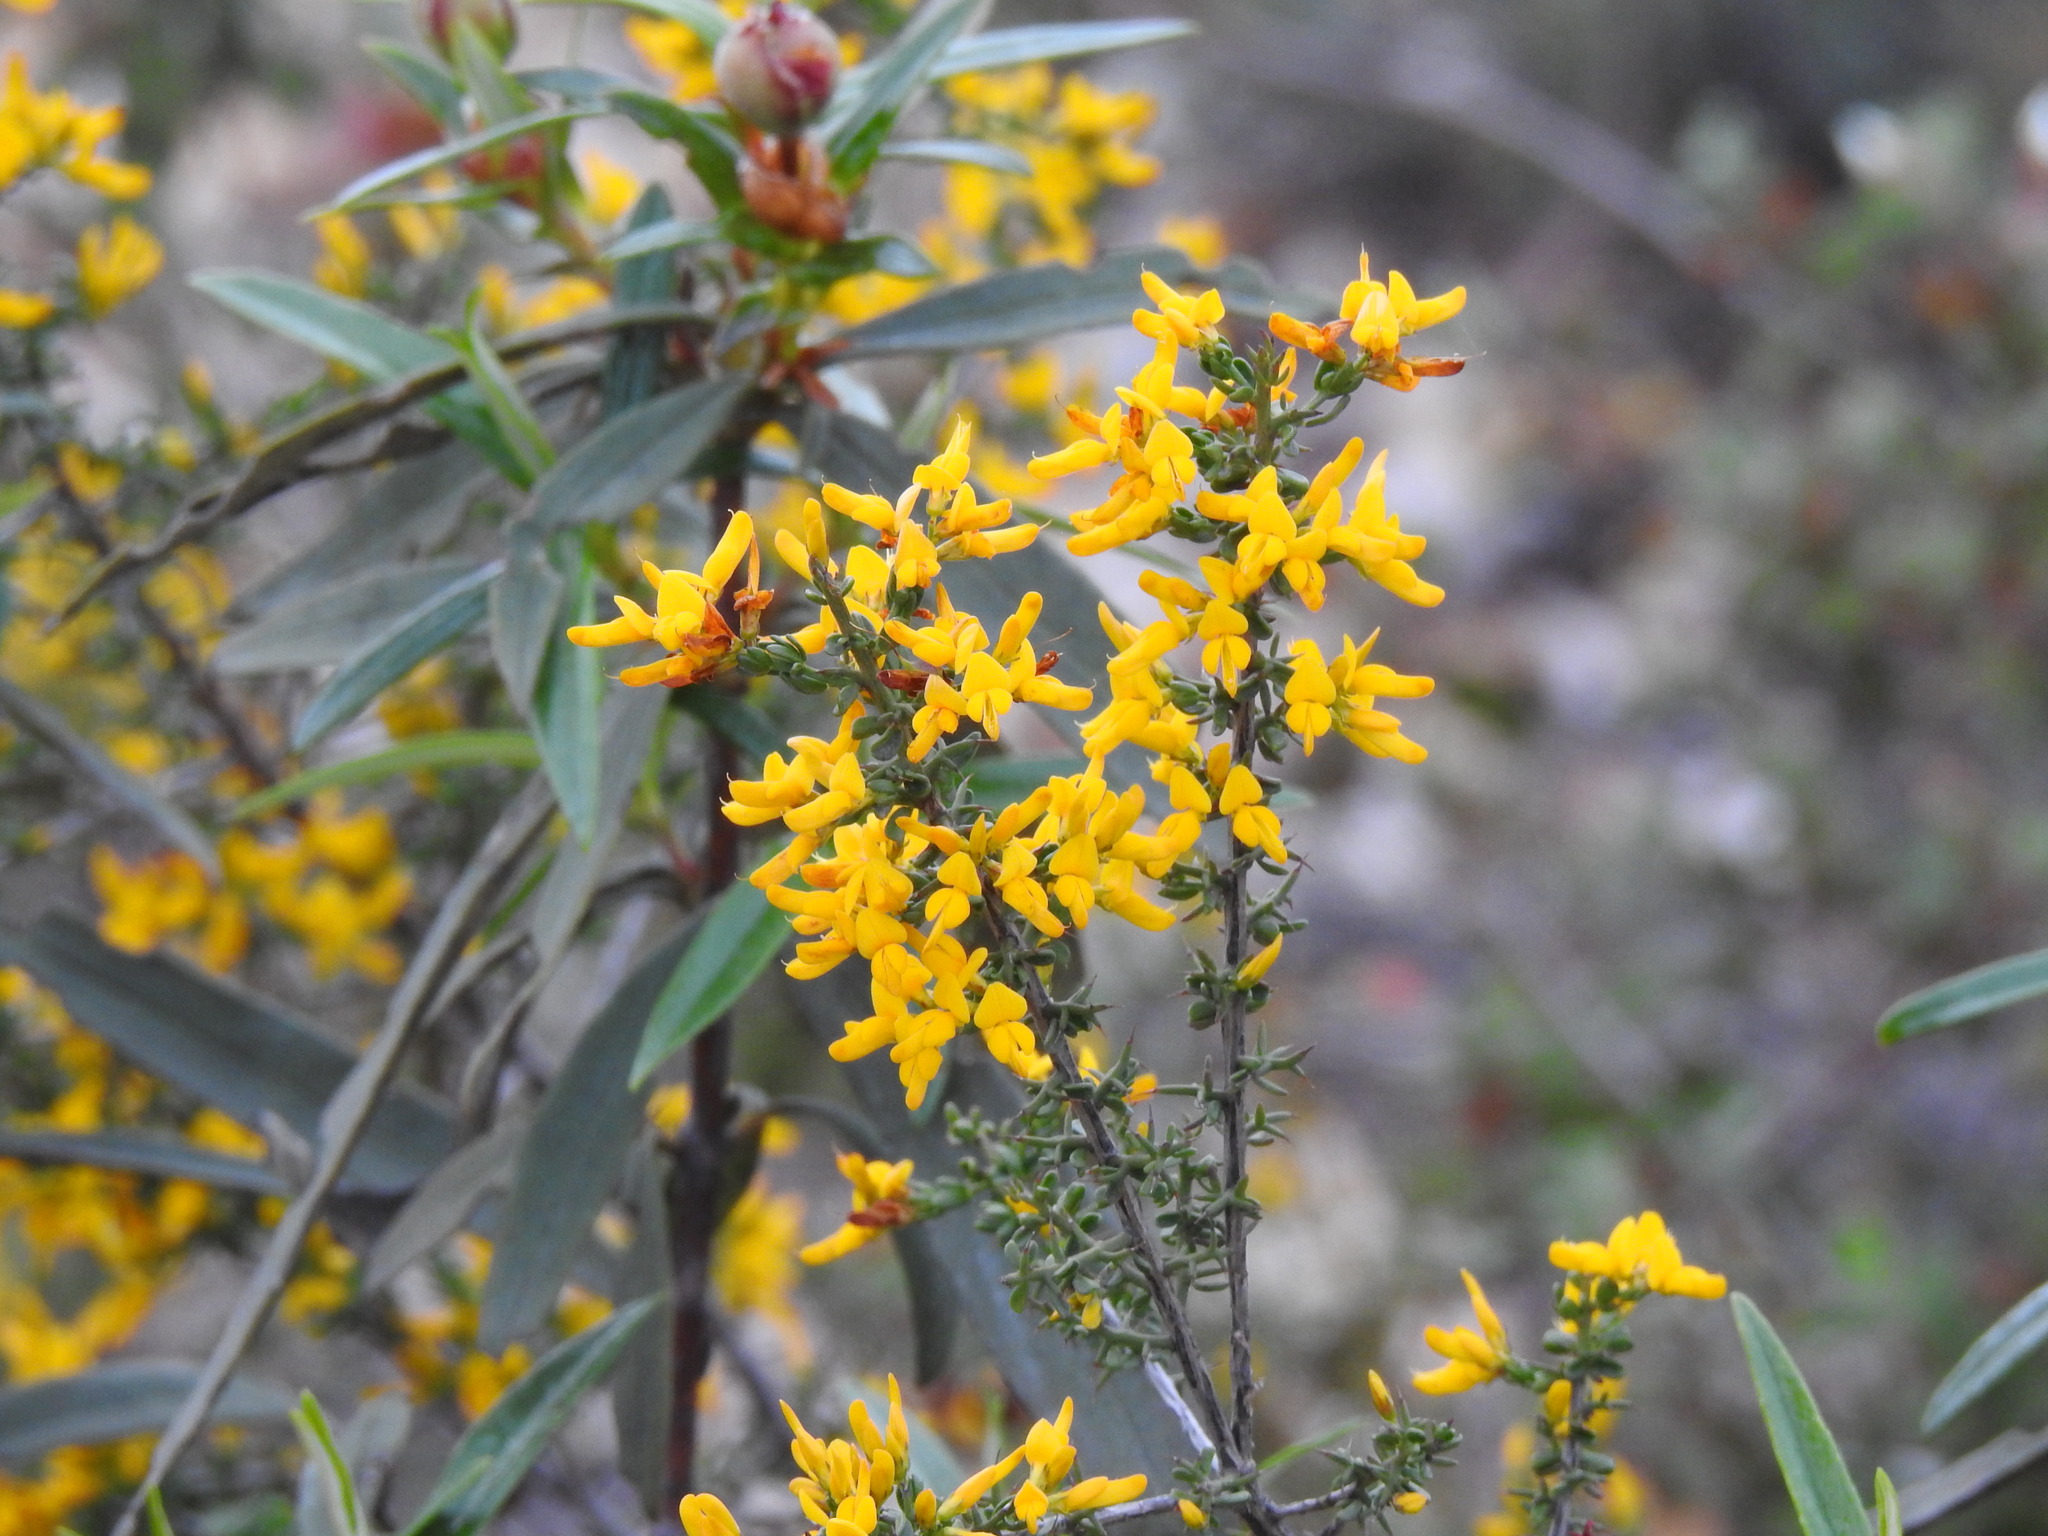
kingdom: Plantae
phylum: Tracheophyta
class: Magnoliopsida
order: Fabales
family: Fabaceae
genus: Genista
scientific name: Genista triacanthos
